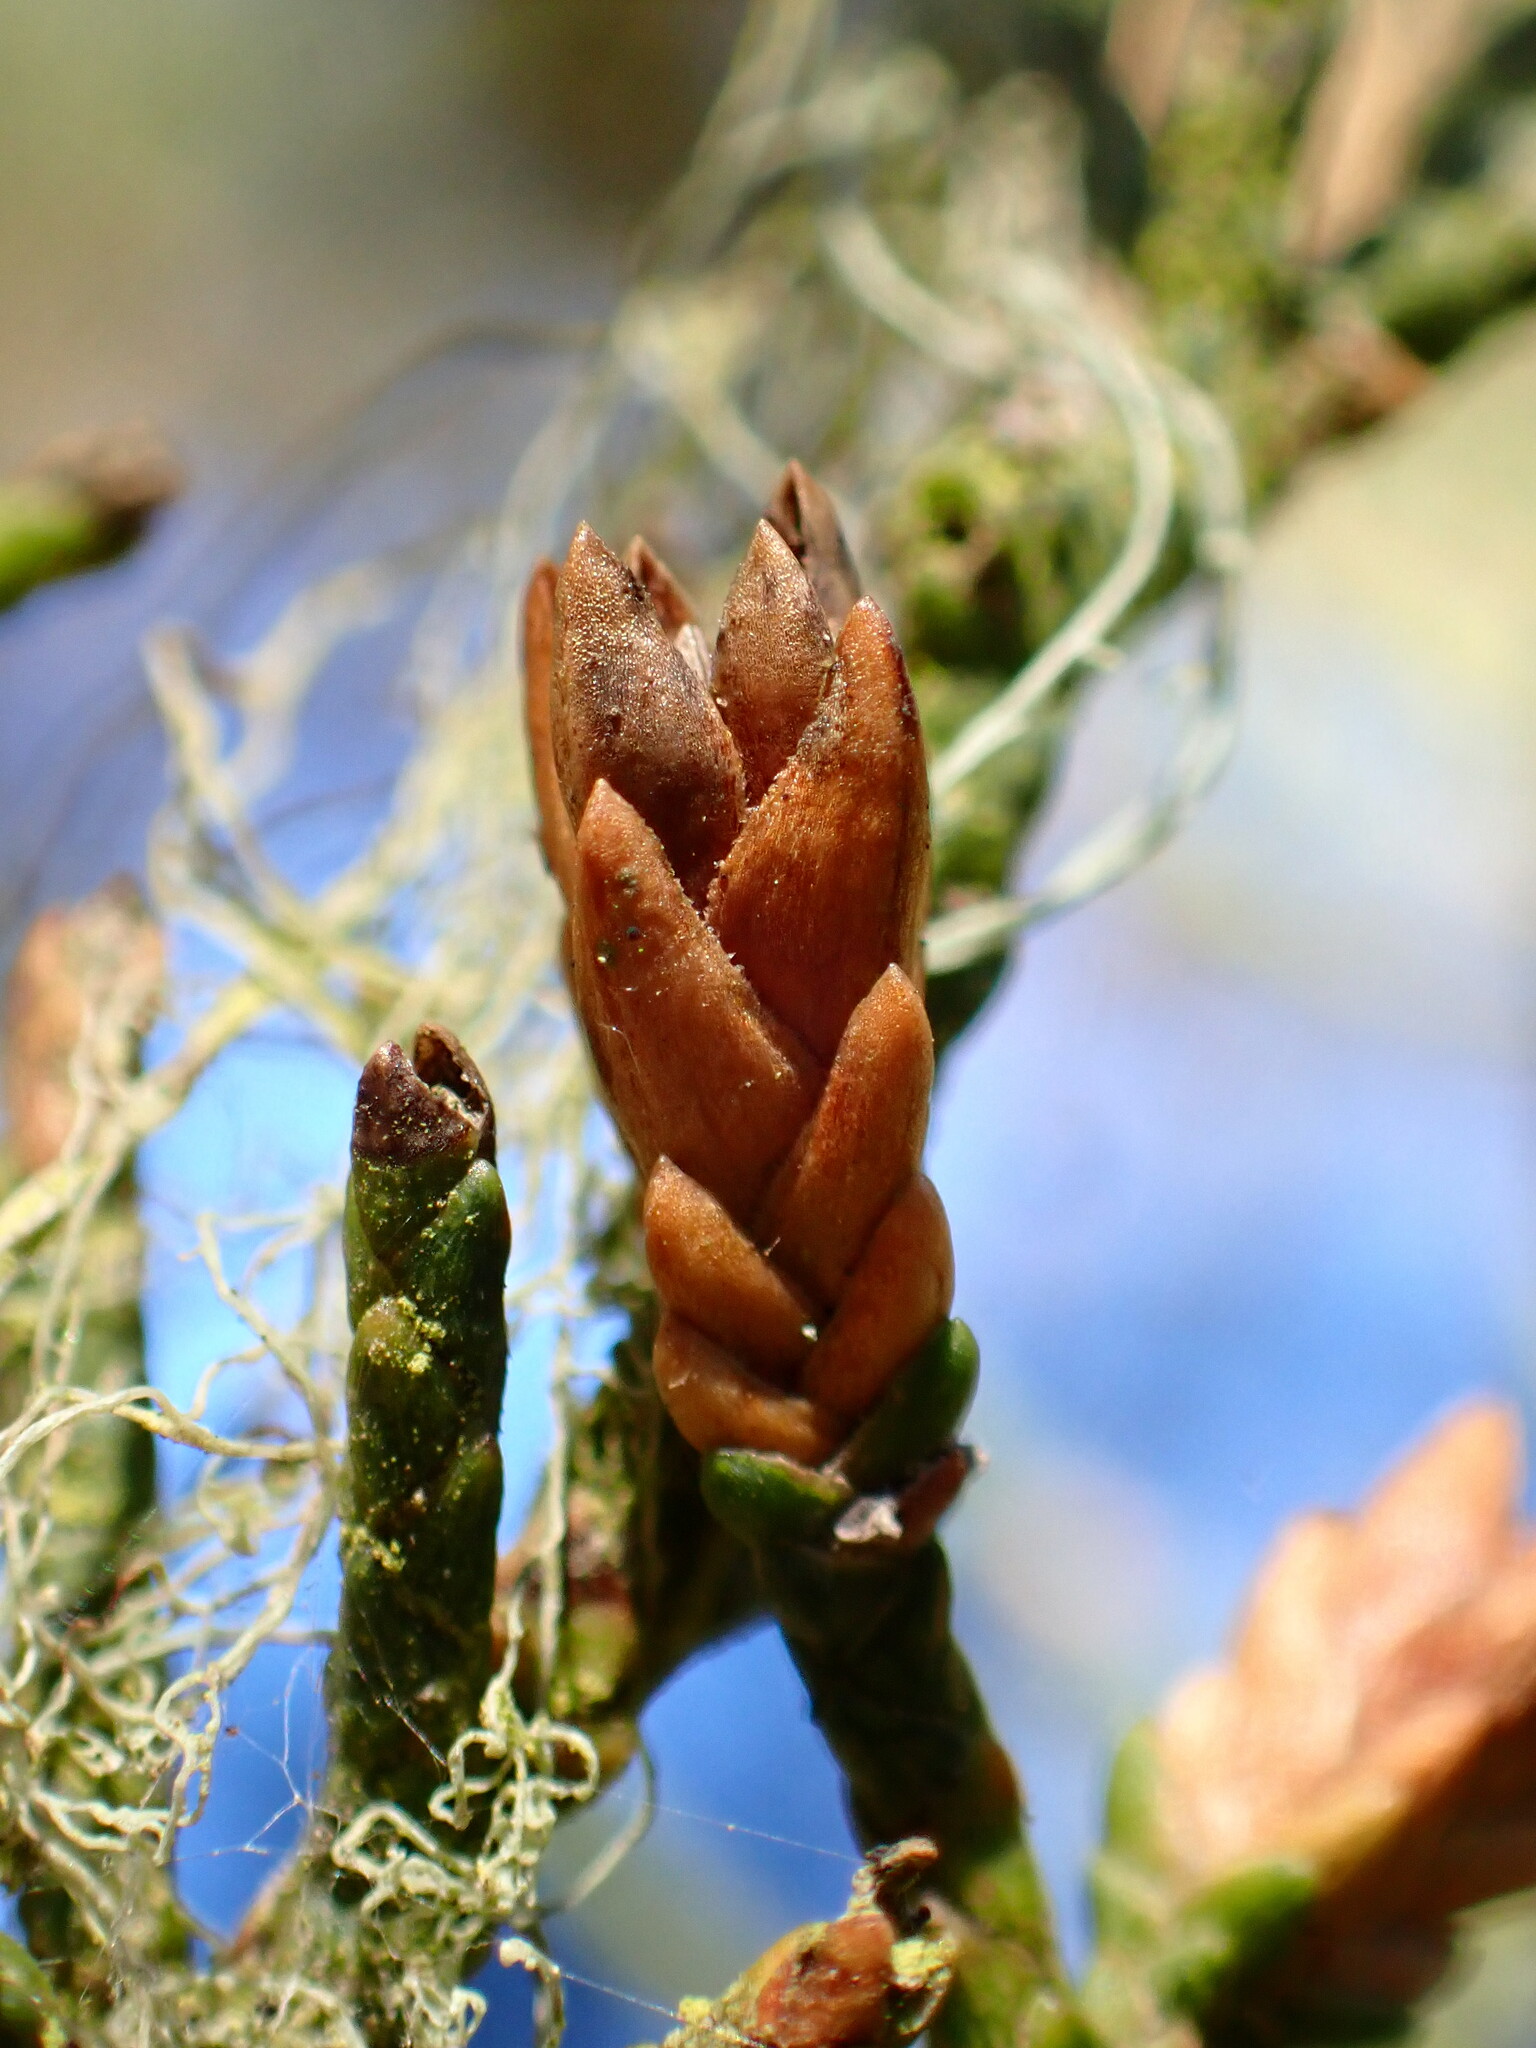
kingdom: Animalia
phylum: Arthropoda
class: Insecta
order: Diptera
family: Cecidomyiidae
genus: Oligotrophus
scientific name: Oligotrophus cupressi
